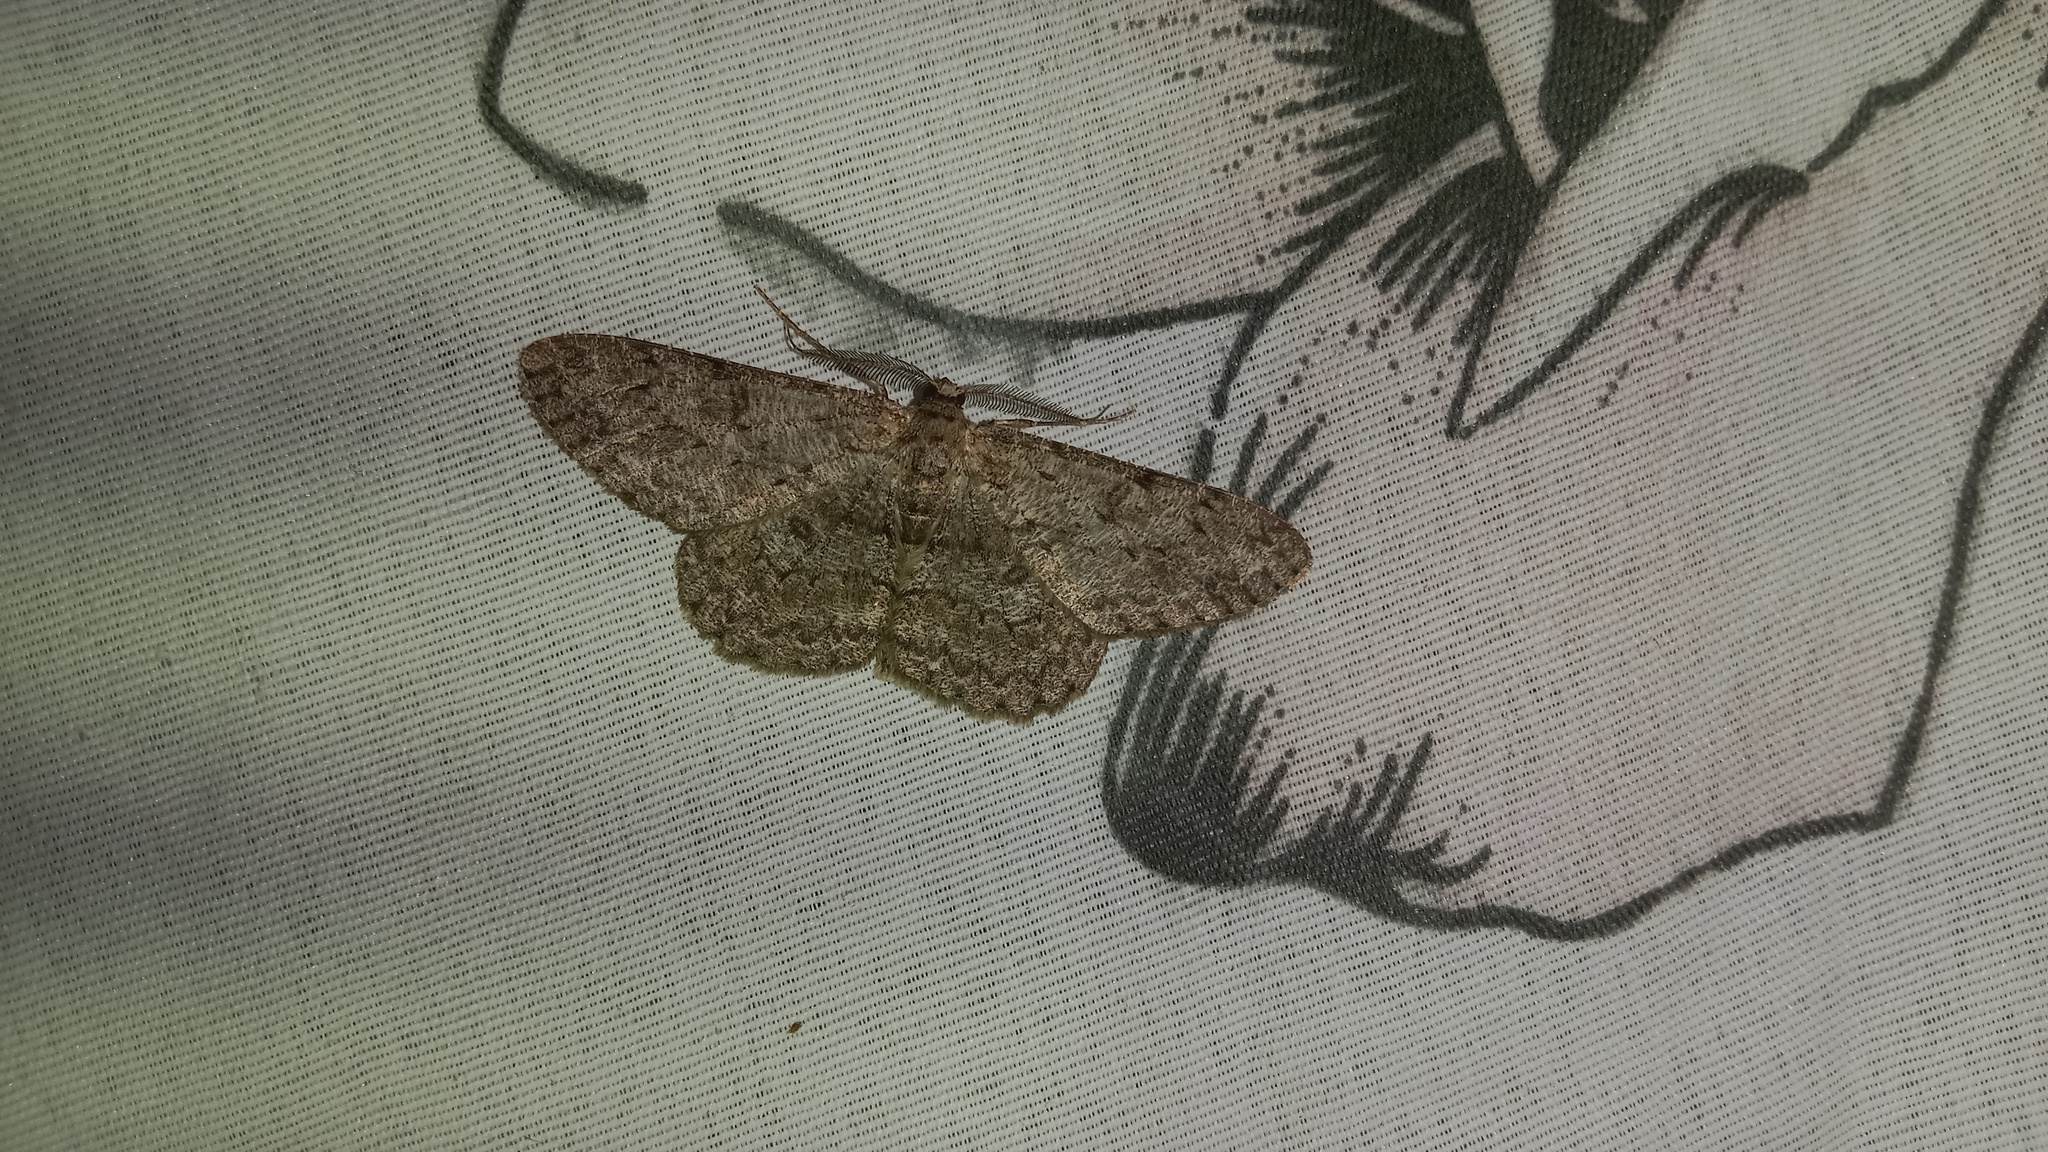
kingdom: Animalia
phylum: Arthropoda
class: Insecta
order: Lepidoptera
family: Geometridae
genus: Hypomecis
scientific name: Hypomecis punctinalis
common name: Pale oak beauty
